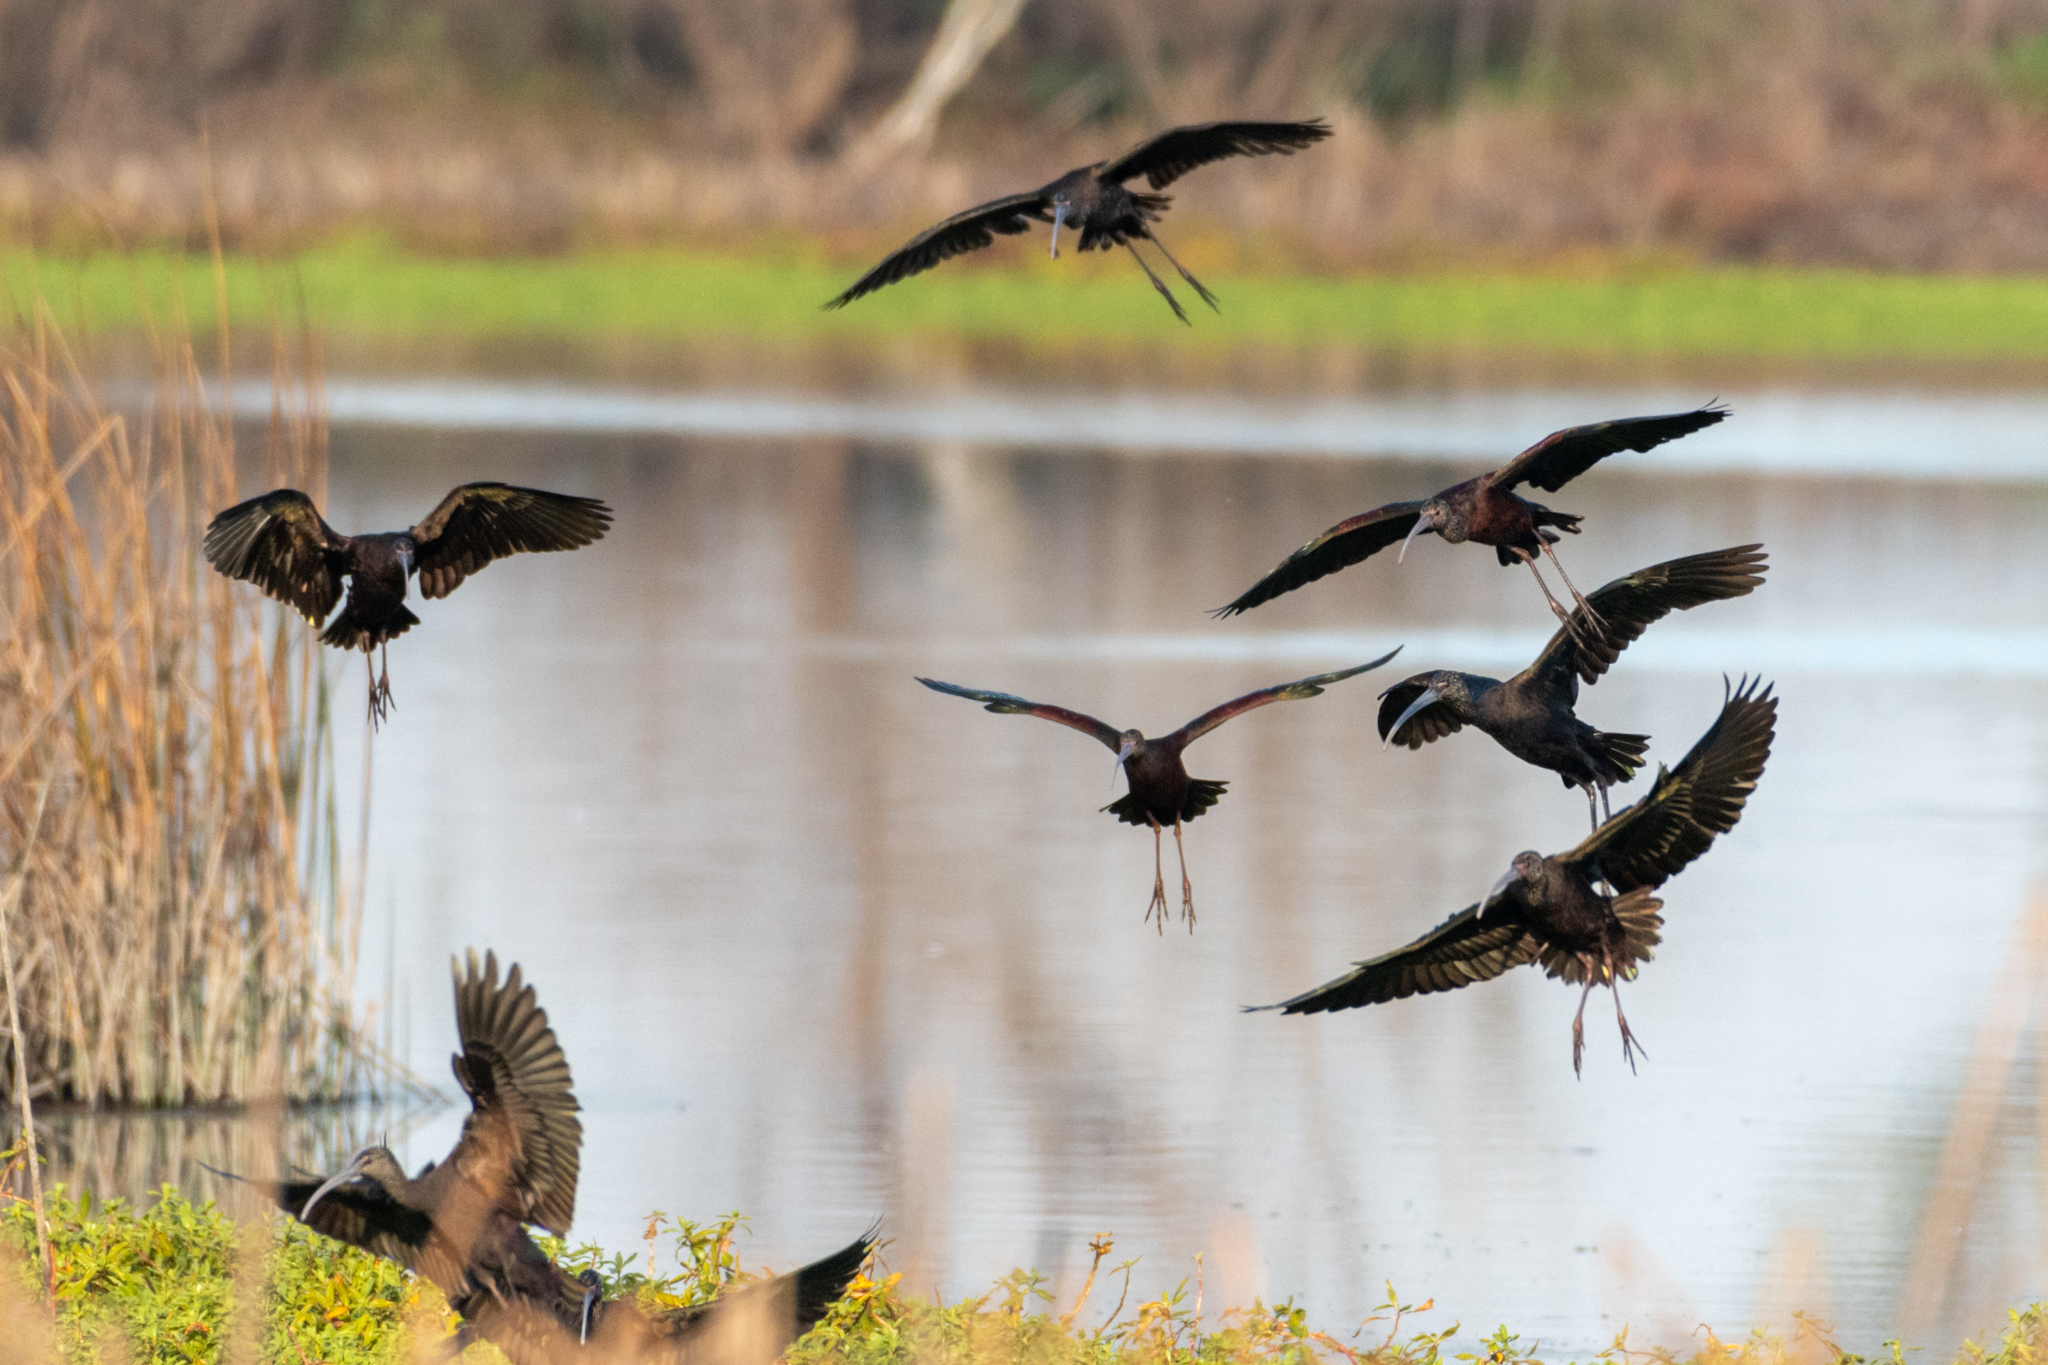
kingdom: Animalia
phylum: Chordata
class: Aves
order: Pelecaniformes
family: Threskiornithidae
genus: Plegadis
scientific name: Plegadis chihi
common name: White-faced ibis
